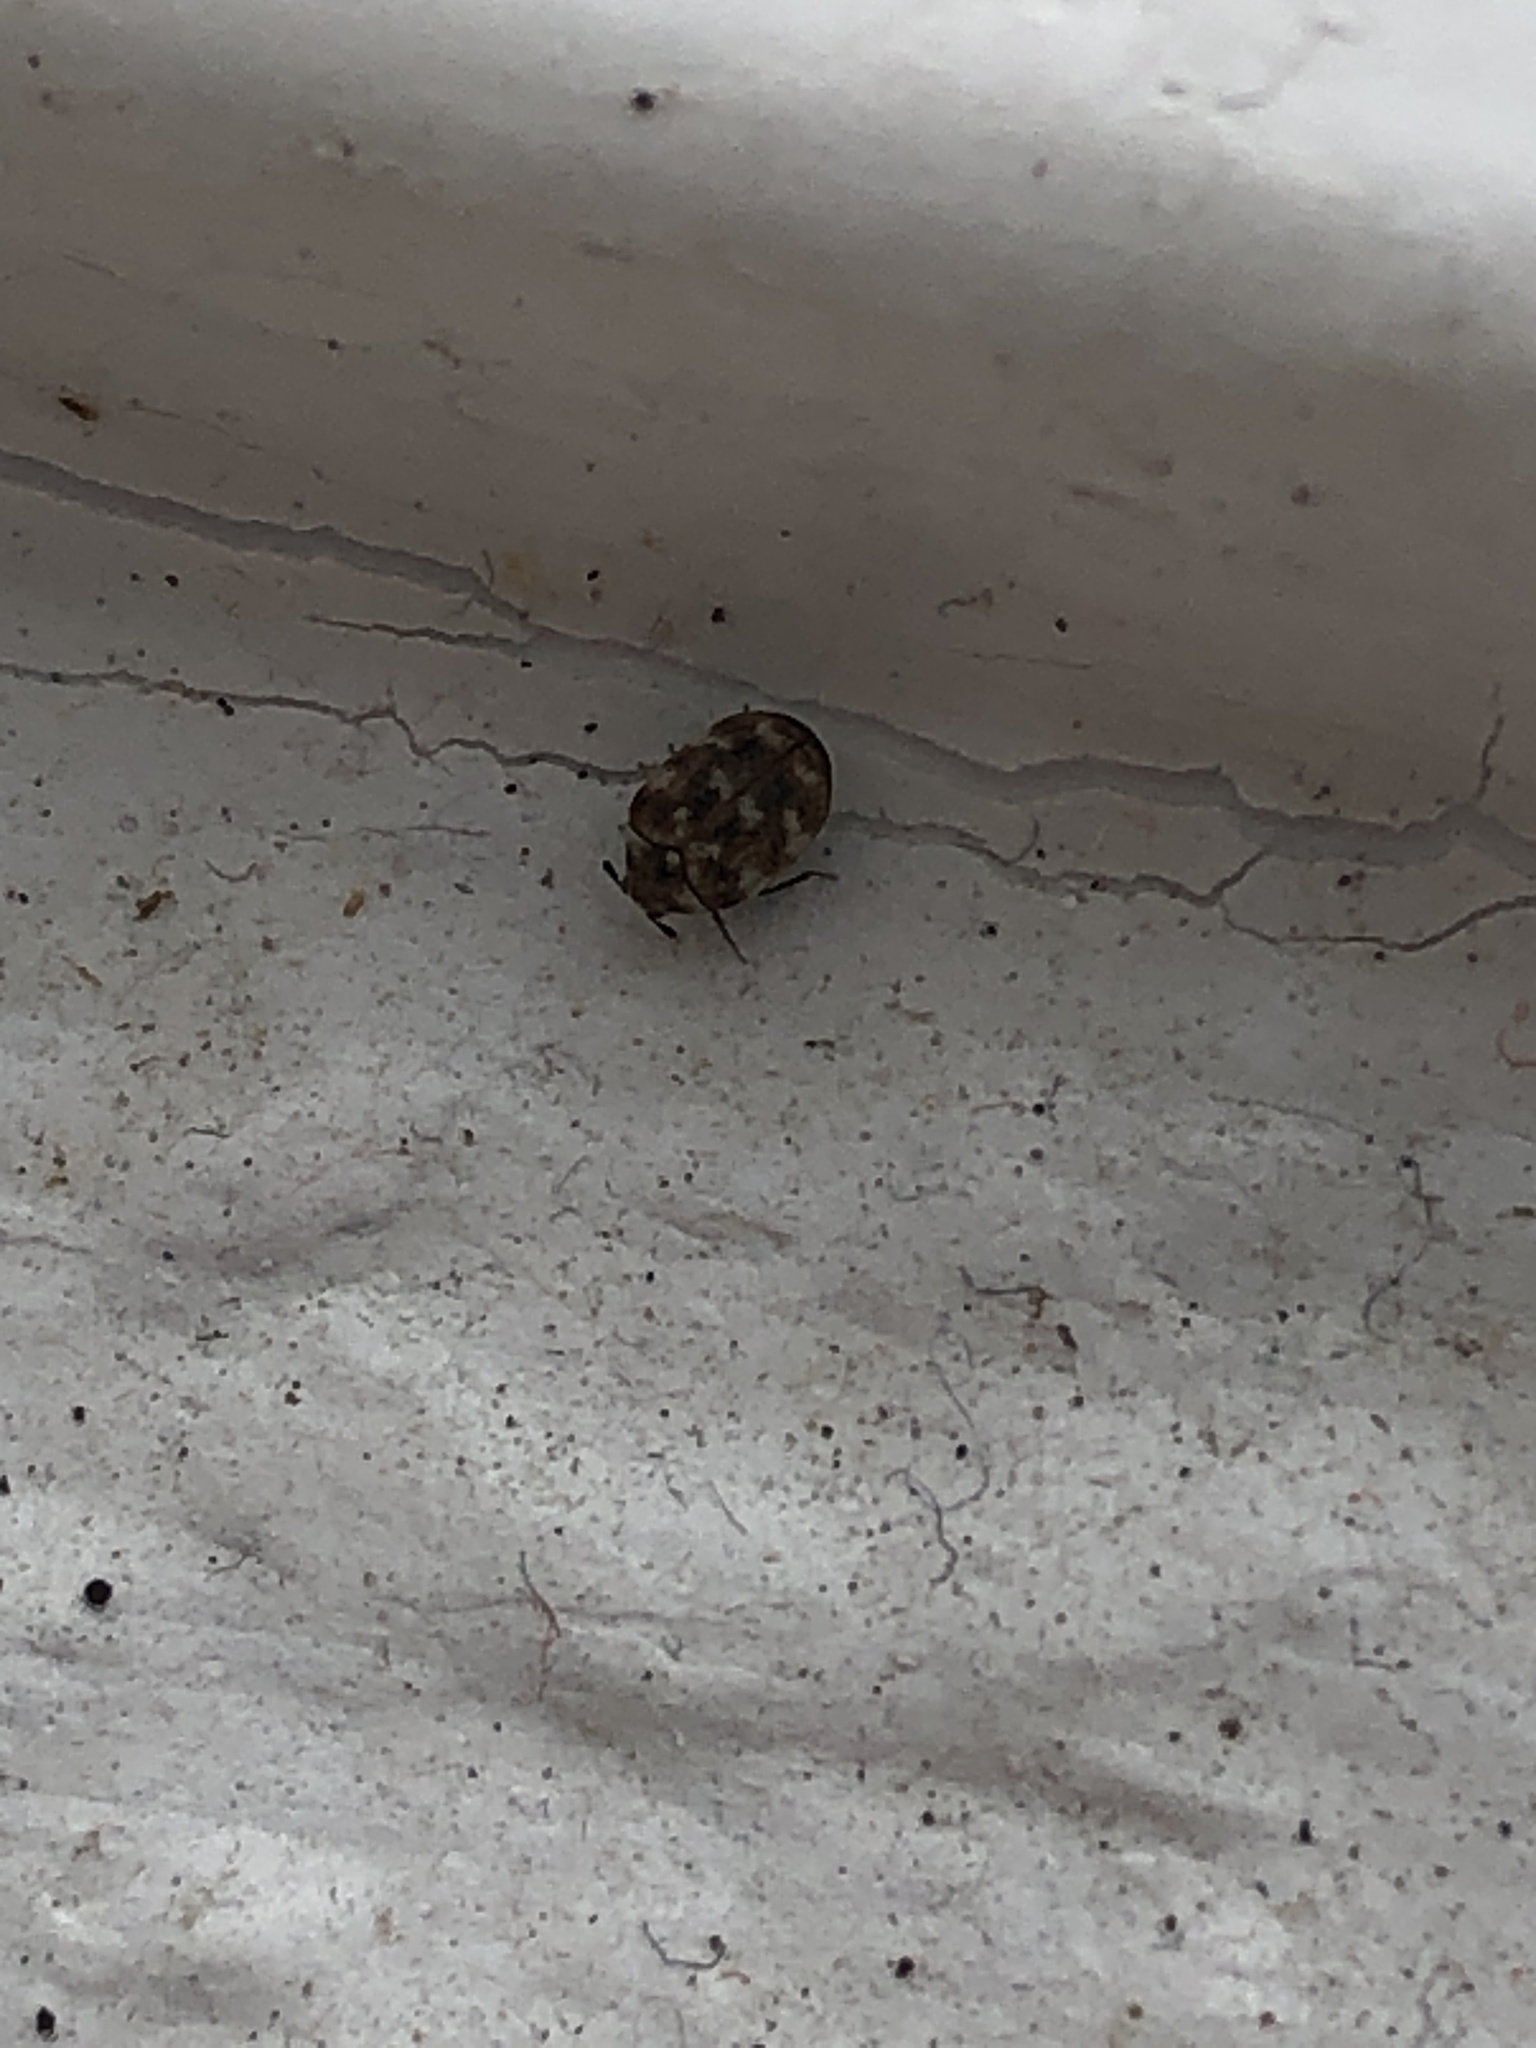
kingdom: Animalia
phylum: Arthropoda
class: Insecta
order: Coleoptera
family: Dermestidae
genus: Anthrenus
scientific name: Anthrenus verbasci
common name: Varied carpet beetle
